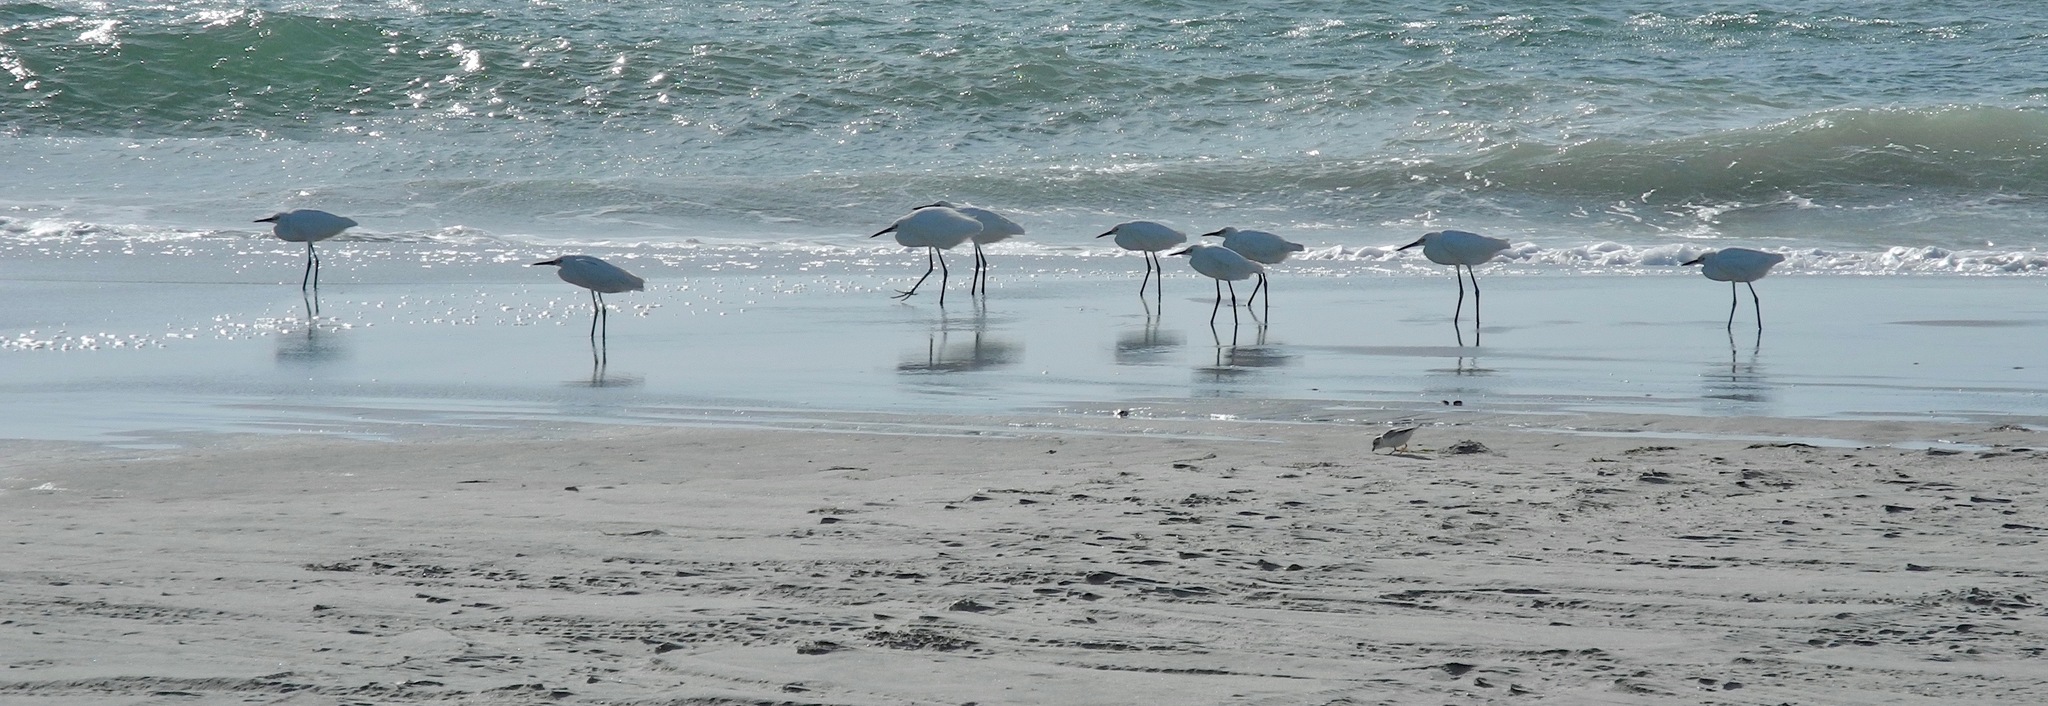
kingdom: Animalia
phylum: Chordata
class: Aves
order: Pelecaniformes
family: Ardeidae
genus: Egretta
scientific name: Egretta thula
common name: Snowy egret
